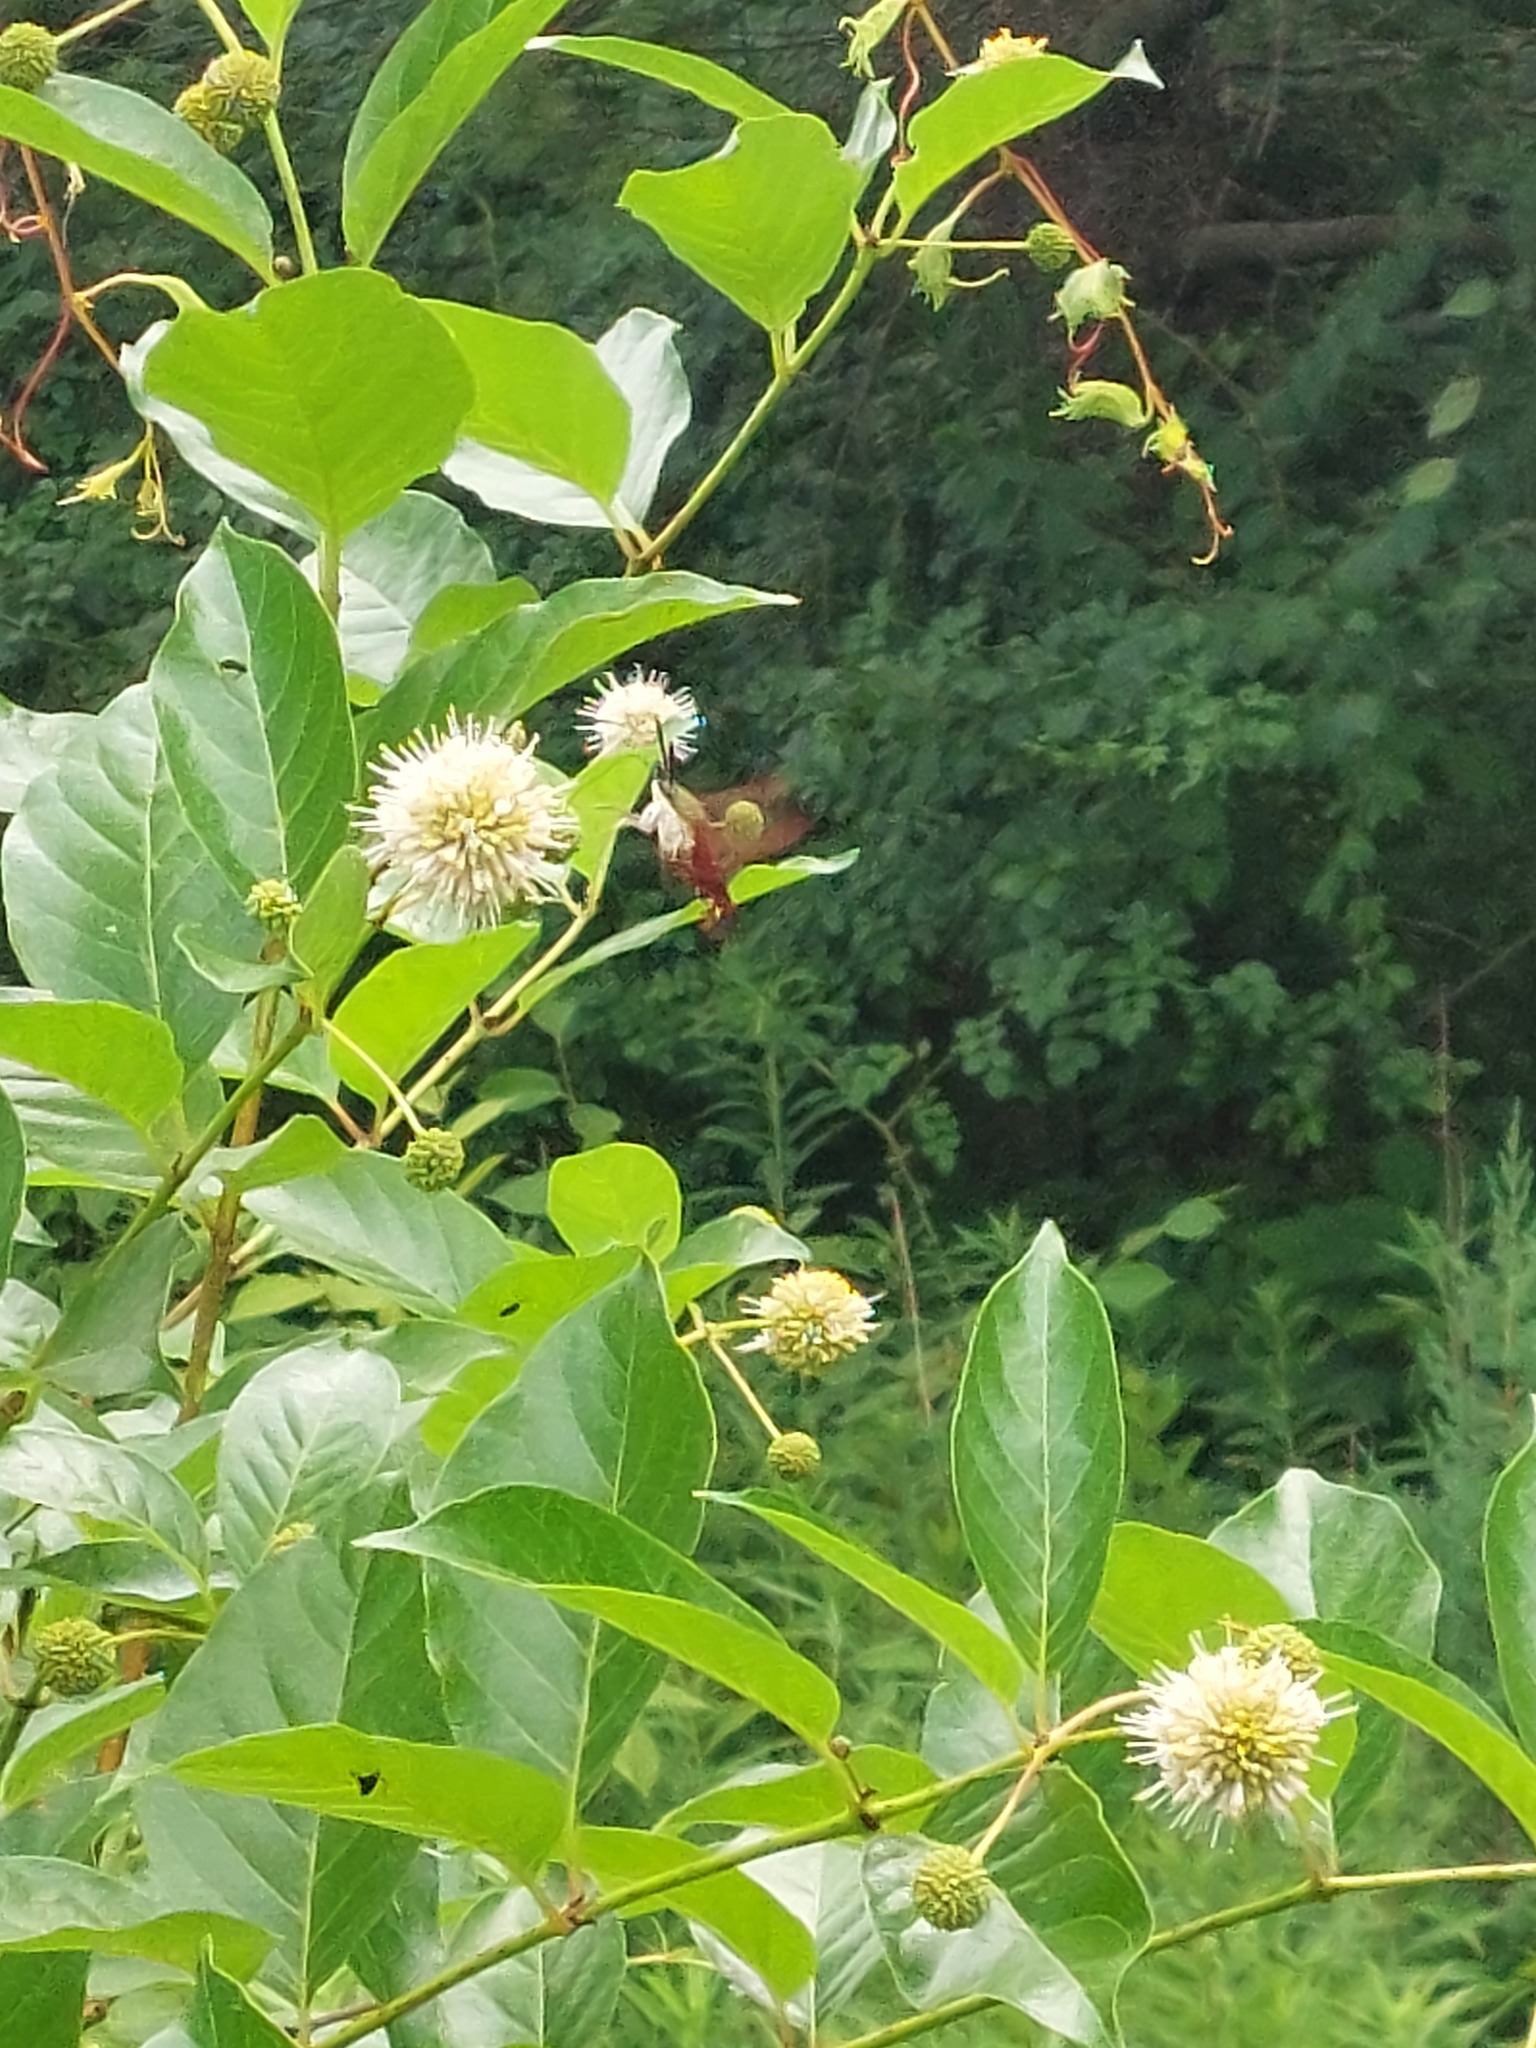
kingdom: Animalia
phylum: Arthropoda
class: Insecta
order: Lepidoptera
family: Sphingidae
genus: Hemaris
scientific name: Hemaris thysbe
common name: Common clear-wing
